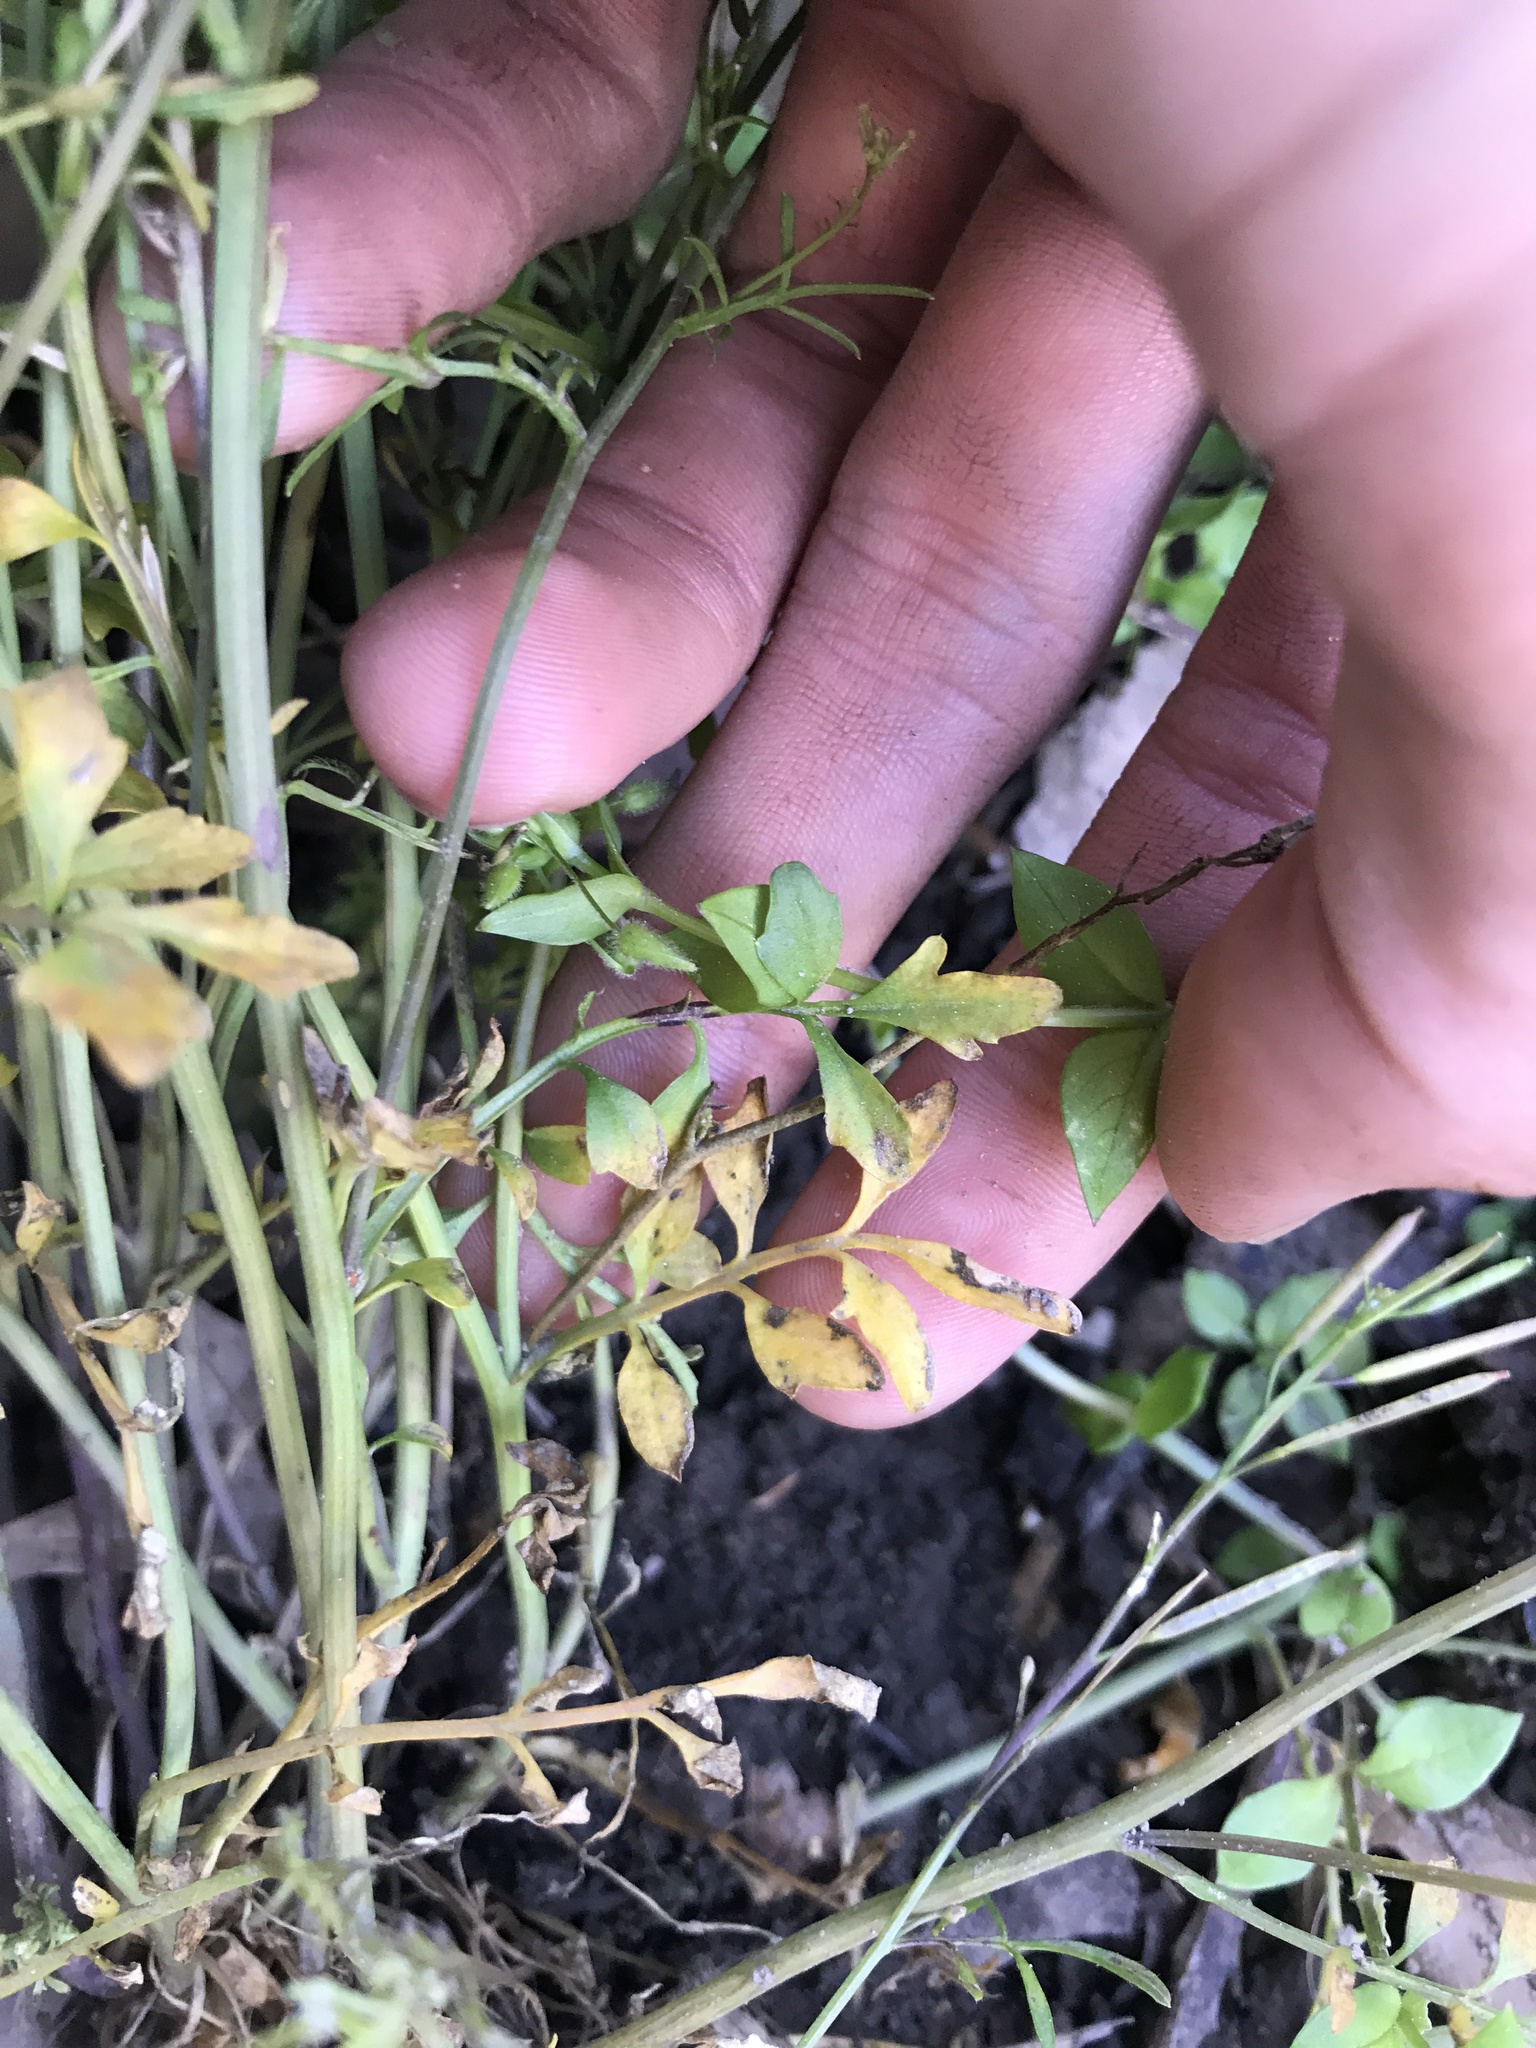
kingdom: Plantae
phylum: Tracheophyta
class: Magnoliopsida
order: Brassicales
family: Brassicaceae
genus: Cardamine
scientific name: Cardamine hirsuta
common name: Hairy bittercress
